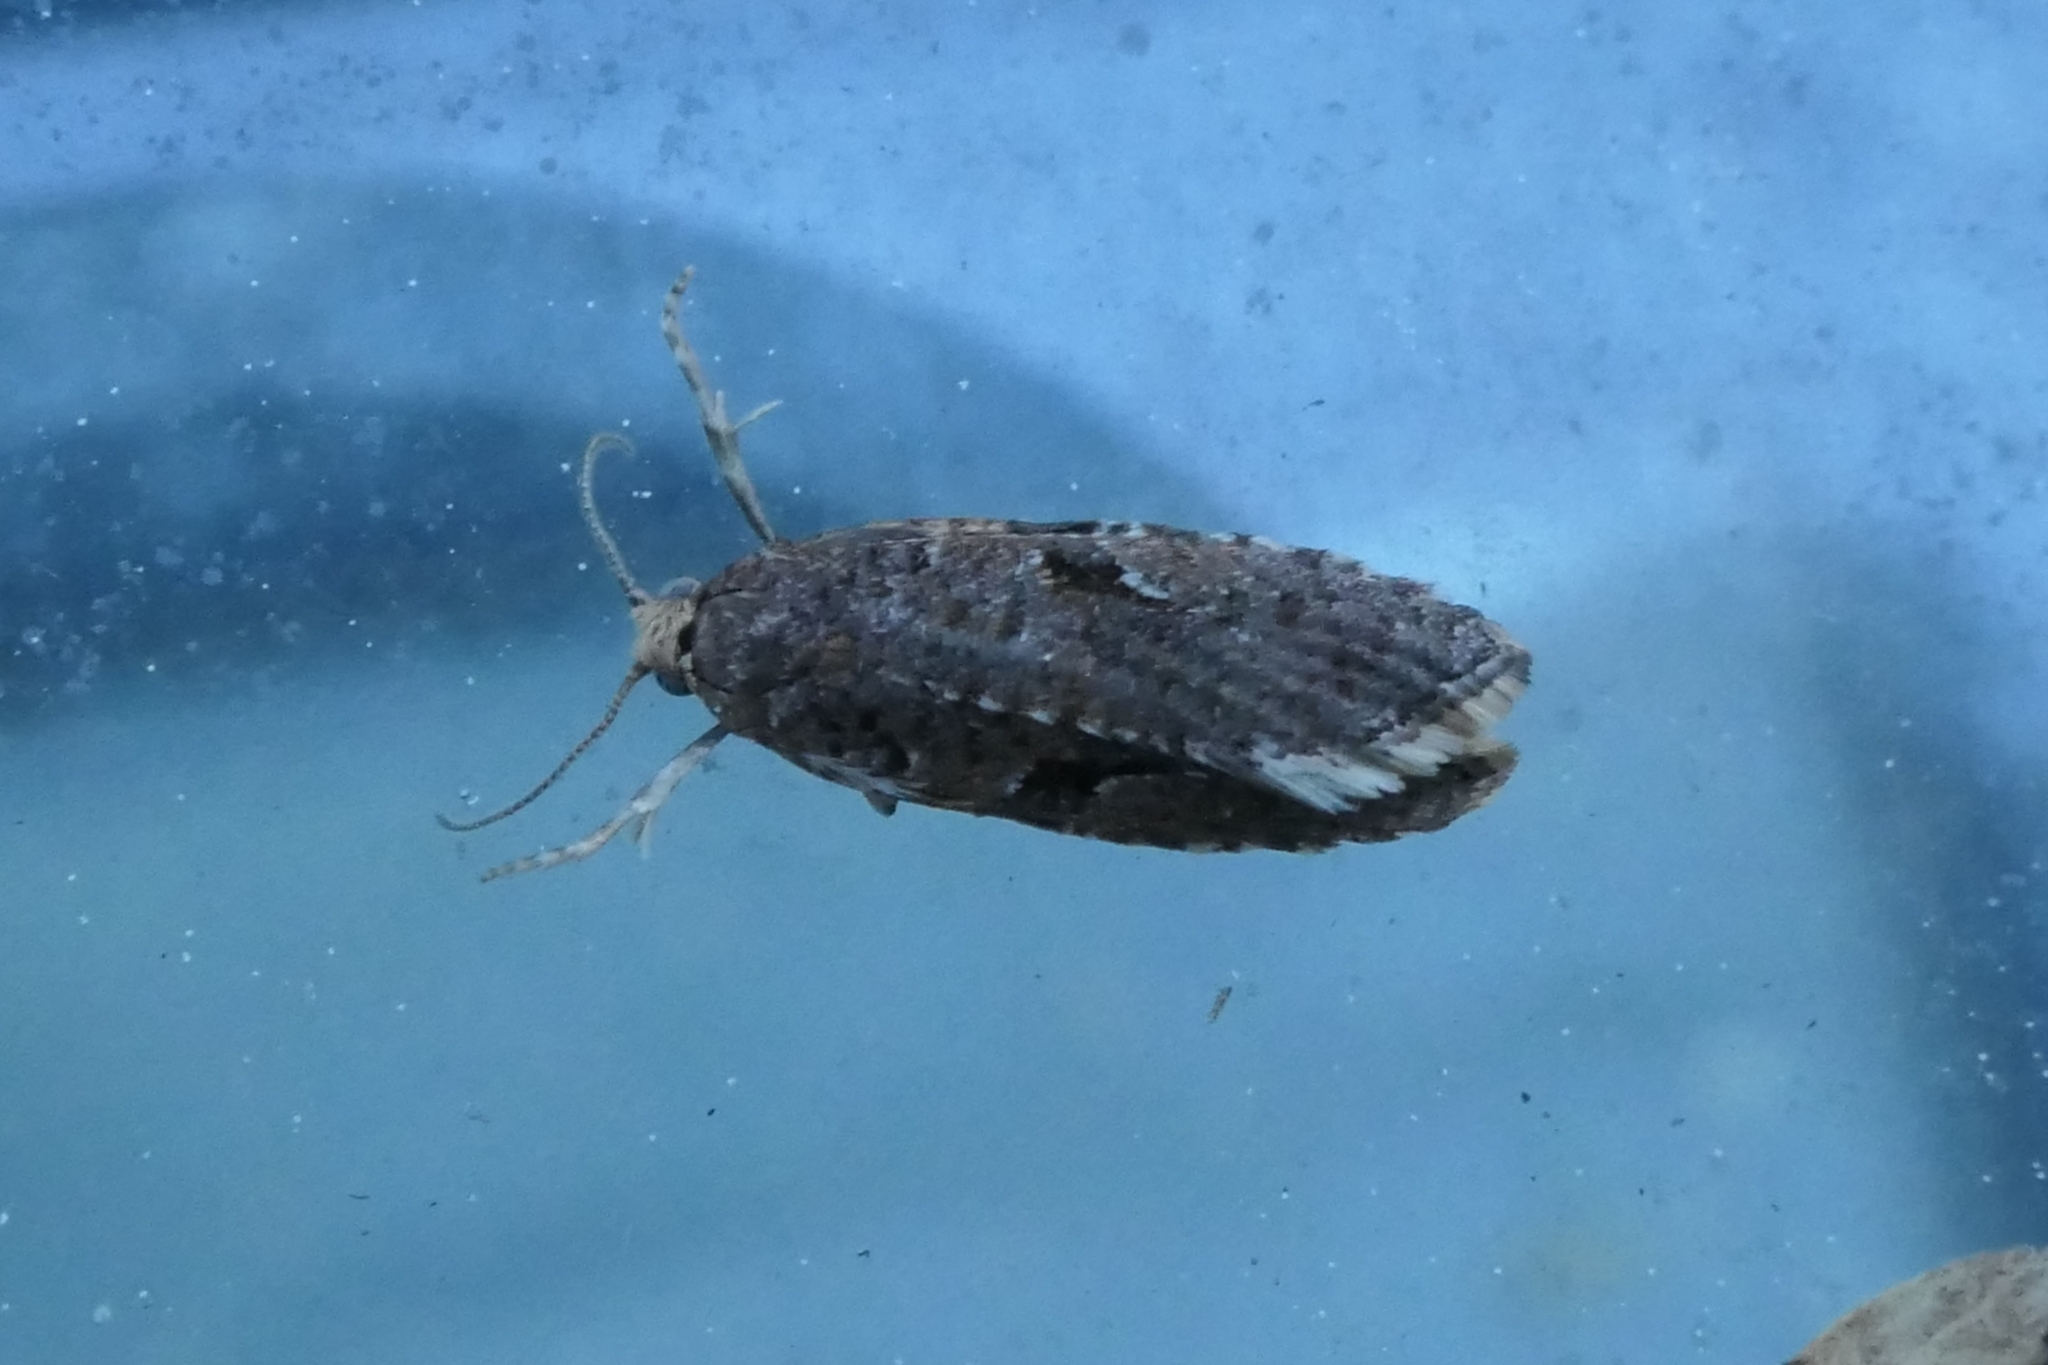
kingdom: Animalia
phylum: Arthropoda
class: Insecta
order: Lepidoptera
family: Tortricidae
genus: Capua
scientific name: Capua semiferana
